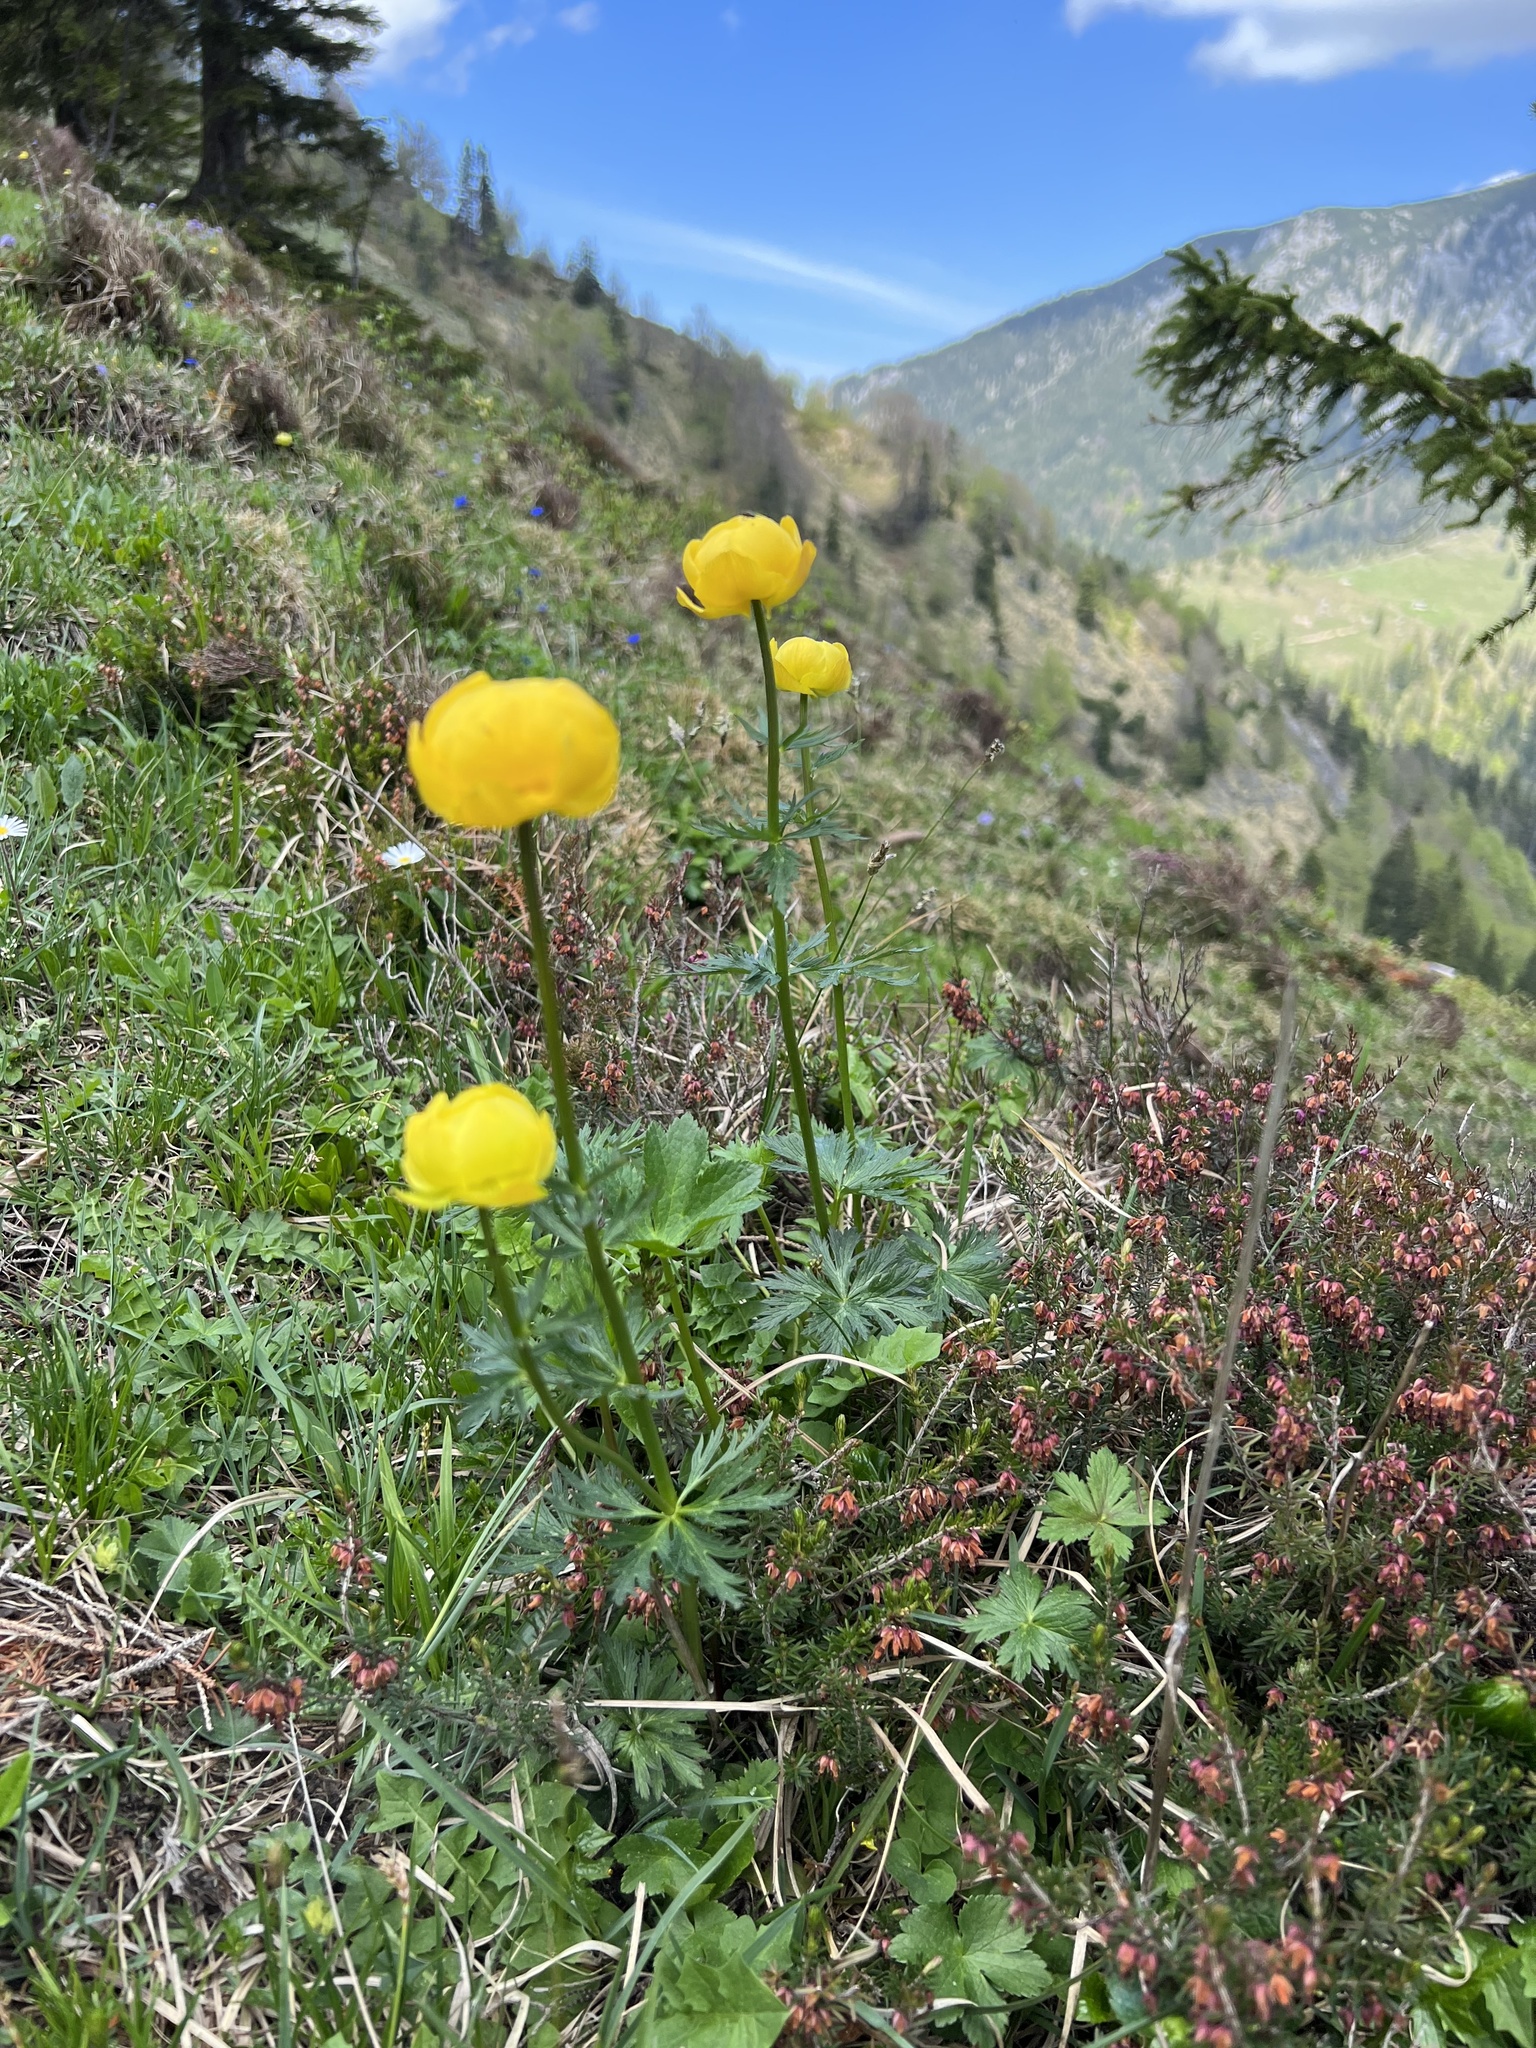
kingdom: Plantae
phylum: Tracheophyta
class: Magnoliopsida
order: Ranunculales
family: Ranunculaceae
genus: Trollius
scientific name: Trollius europaeus
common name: European globeflower
